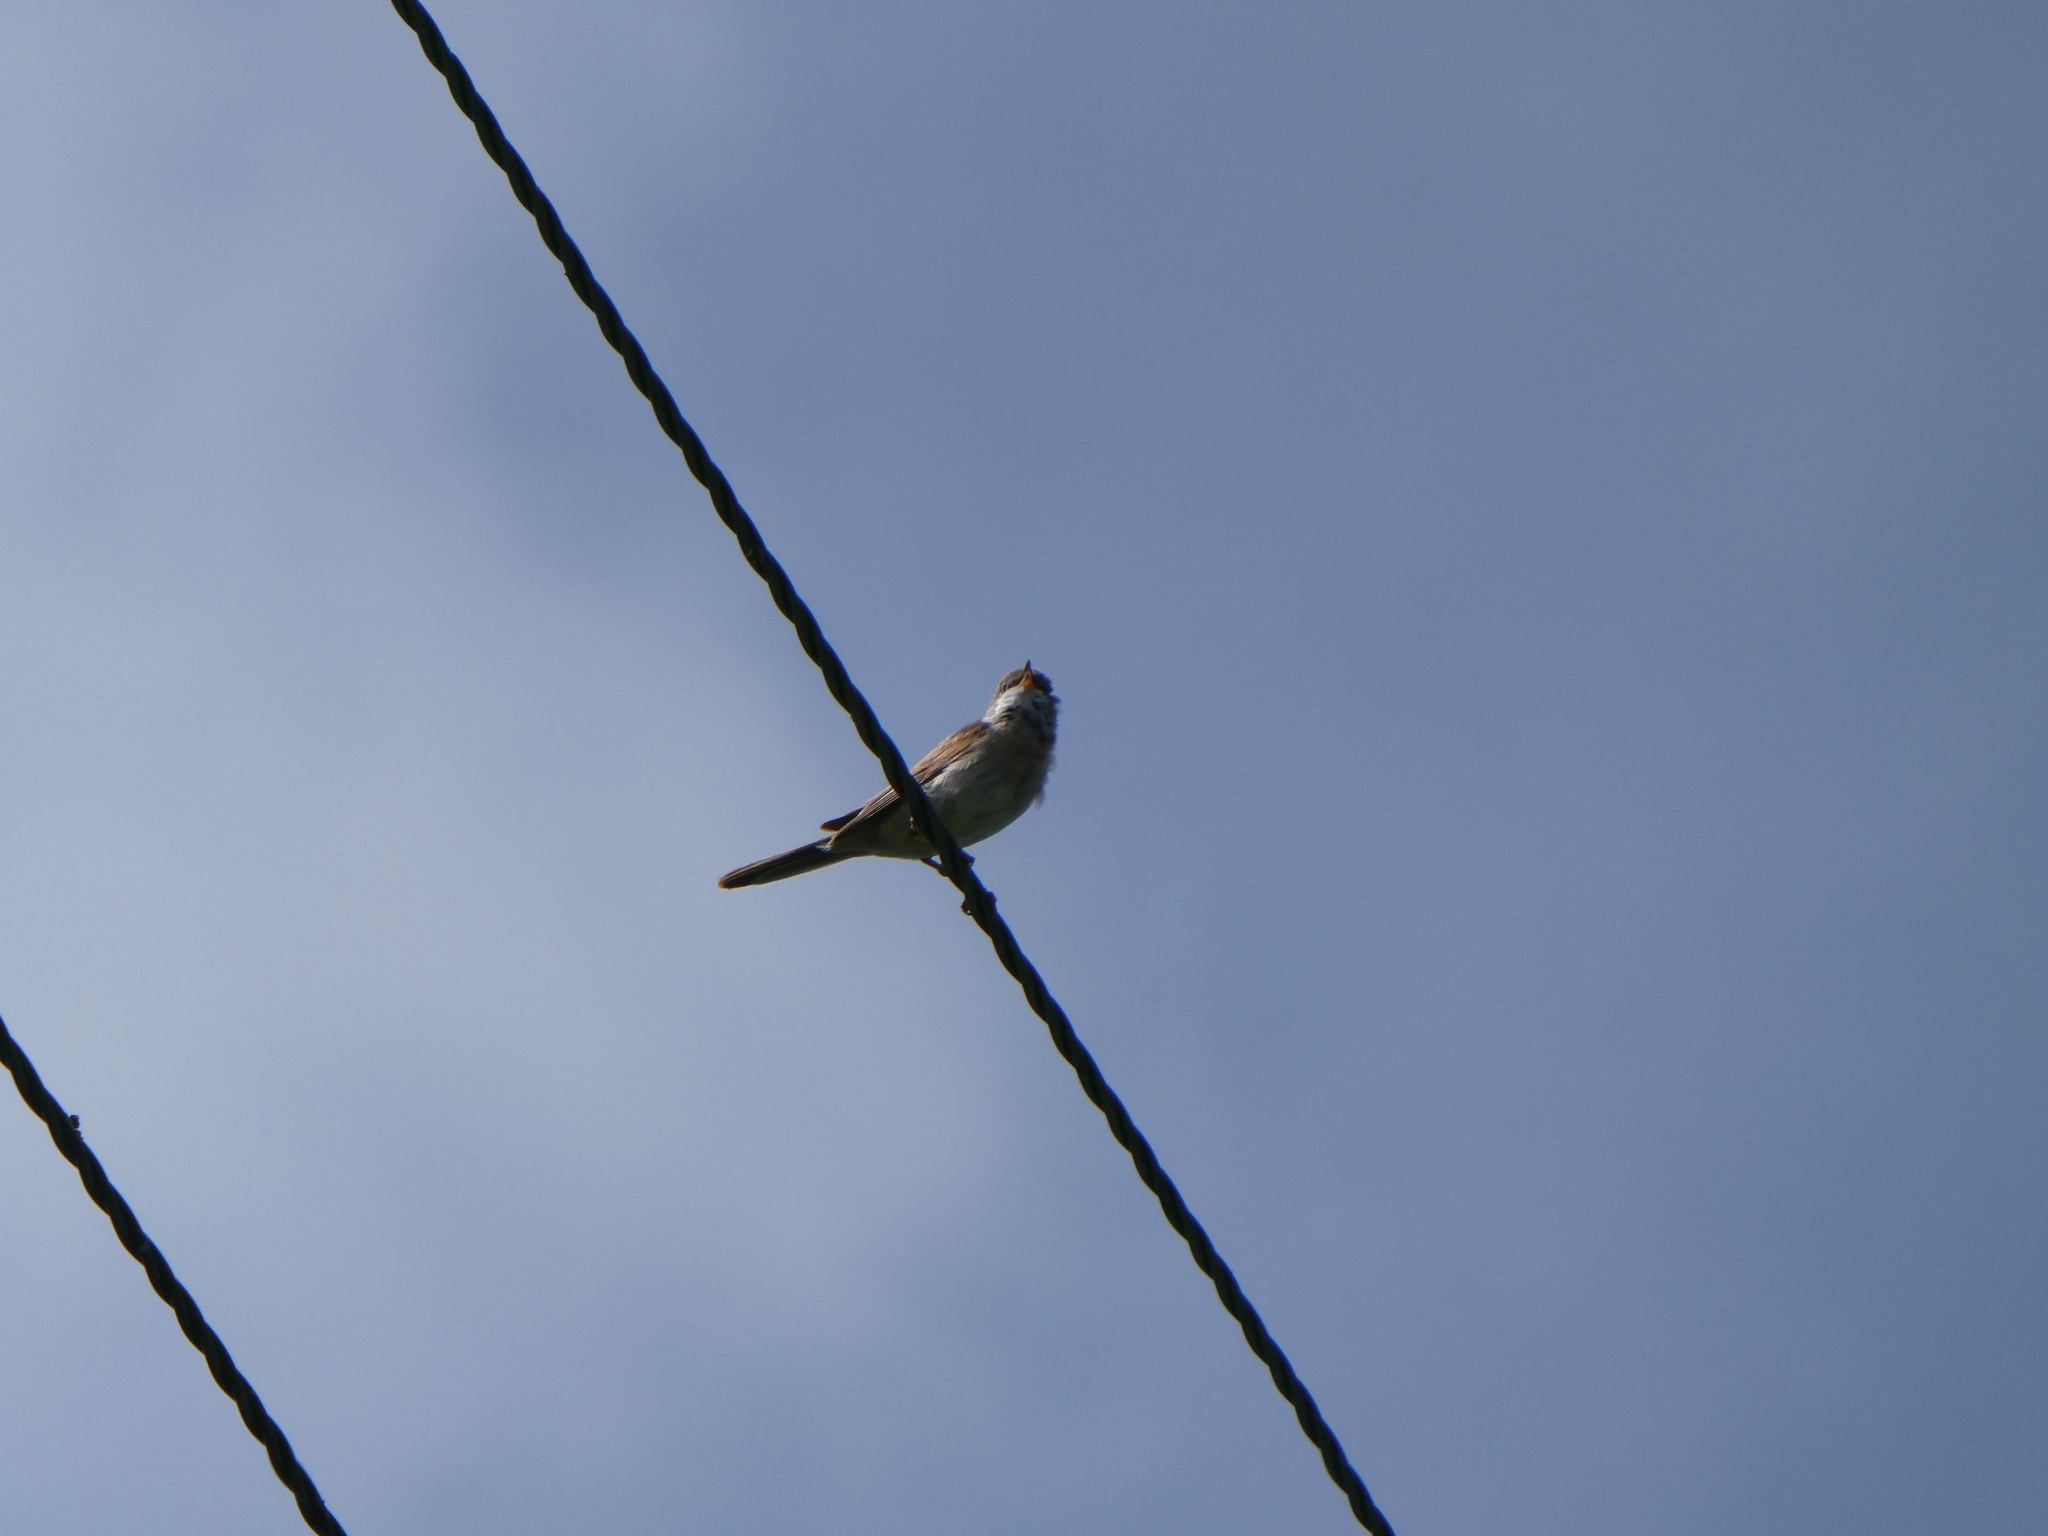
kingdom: Animalia
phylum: Chordata
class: Aves
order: Passeriformes
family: Sylviidae
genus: Sylvia
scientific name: Sylvia communis
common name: Common whitethroat
